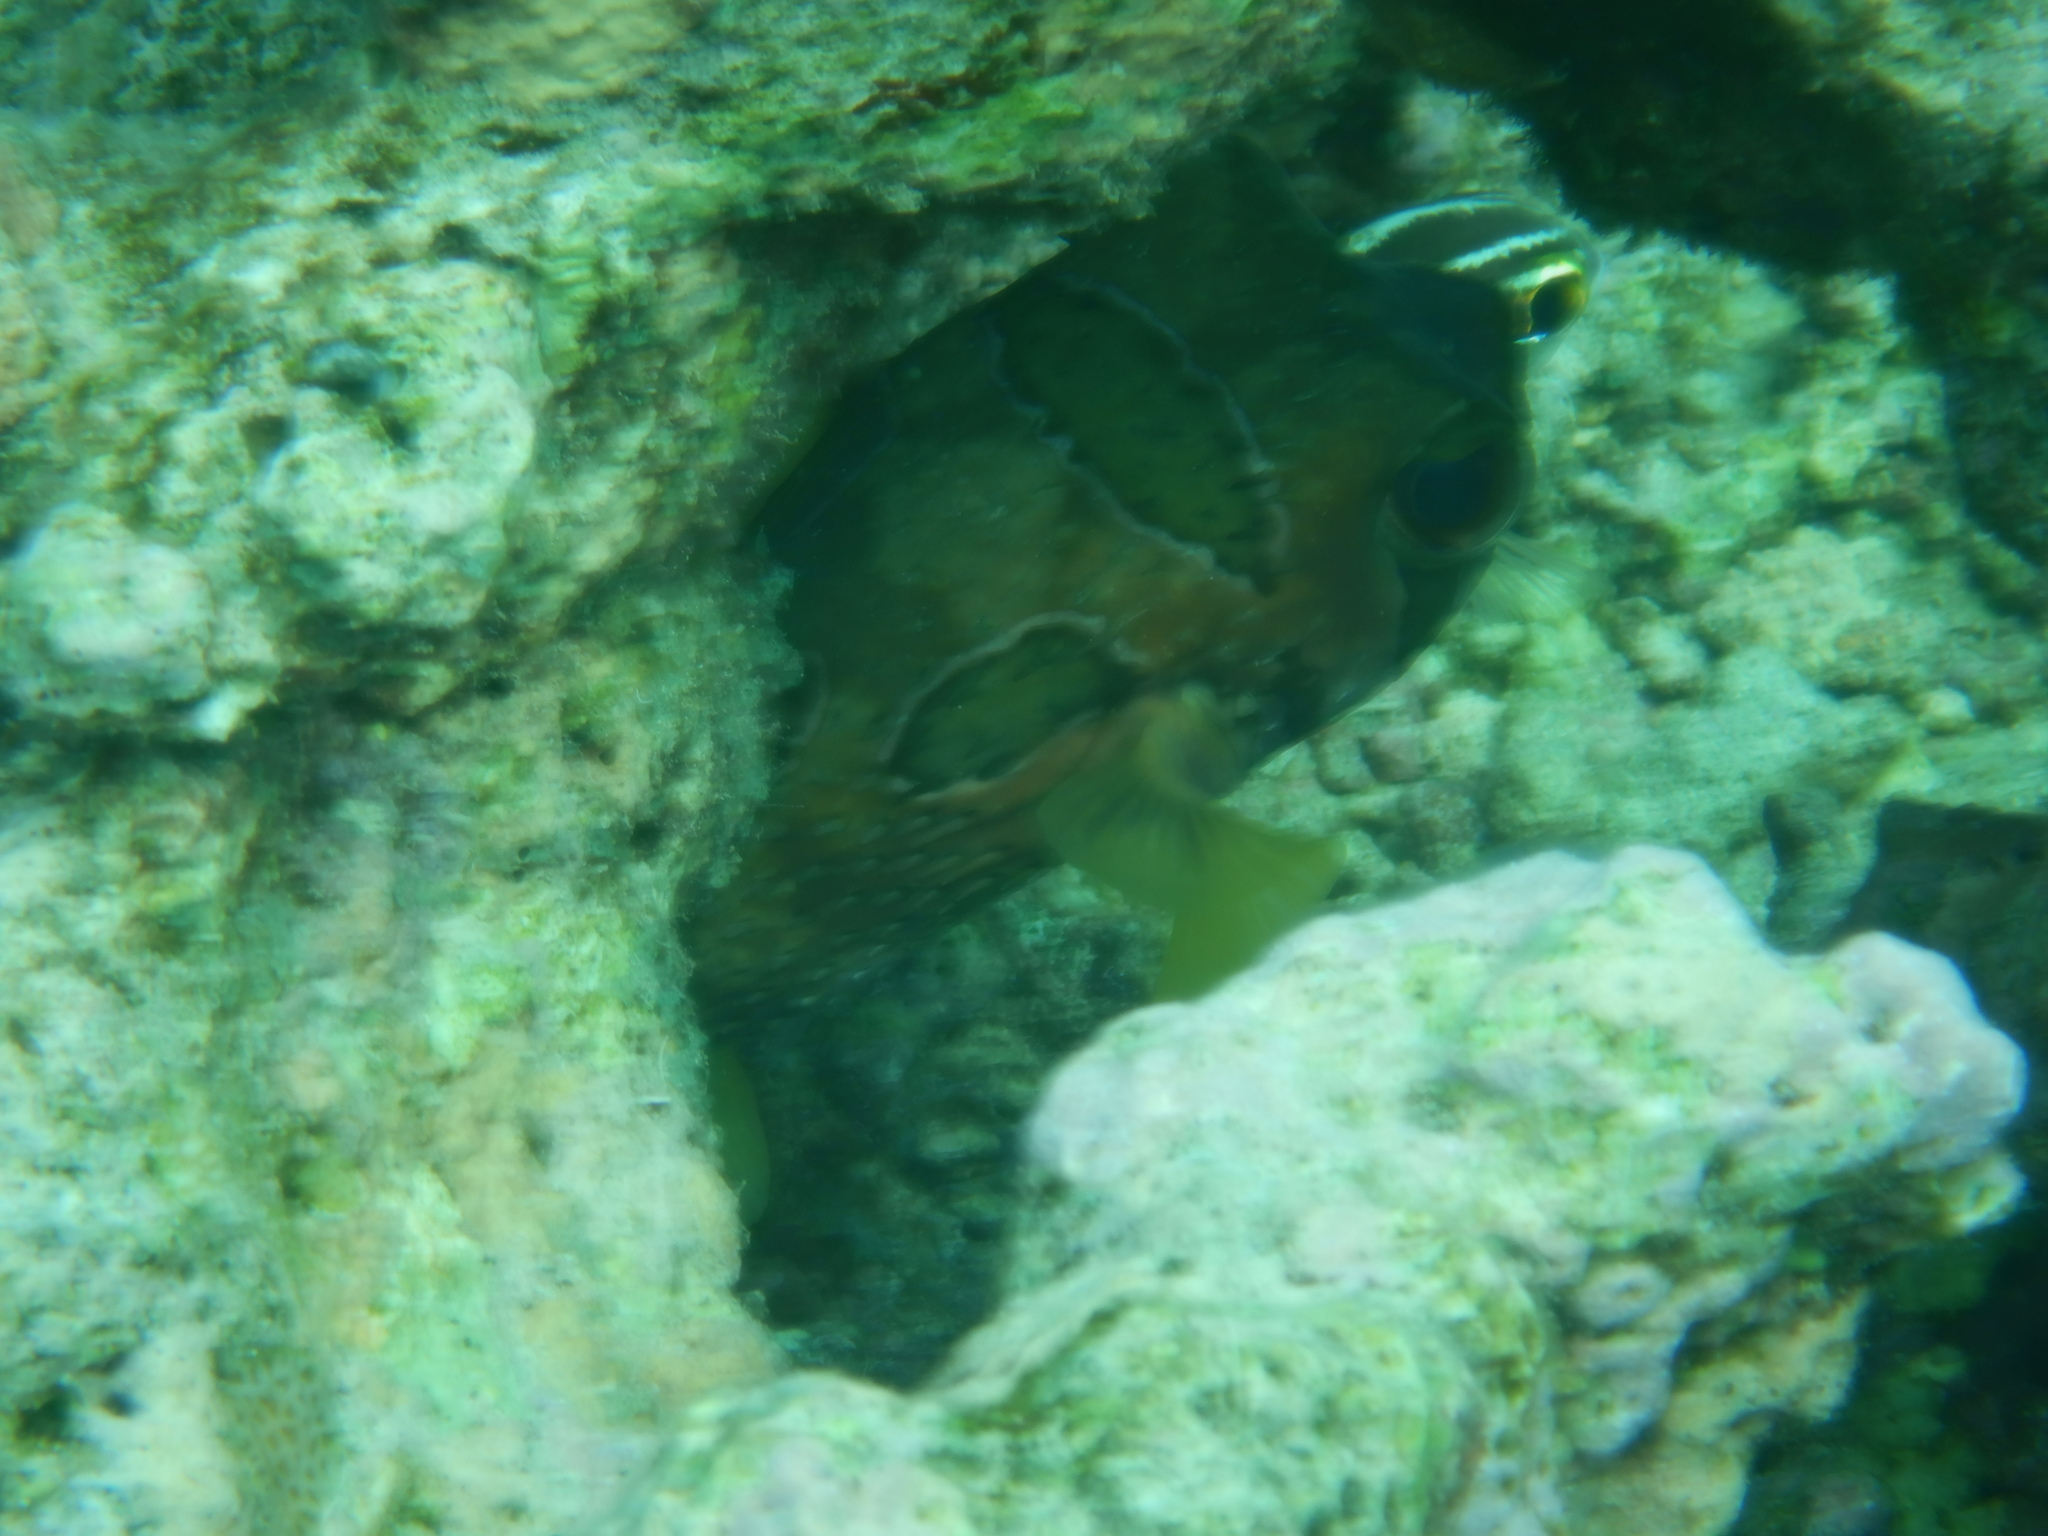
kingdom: Animalia
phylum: Chordata
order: Tetraodontiformes
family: Diodontidae
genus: Diodon
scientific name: Diodon liturosus
